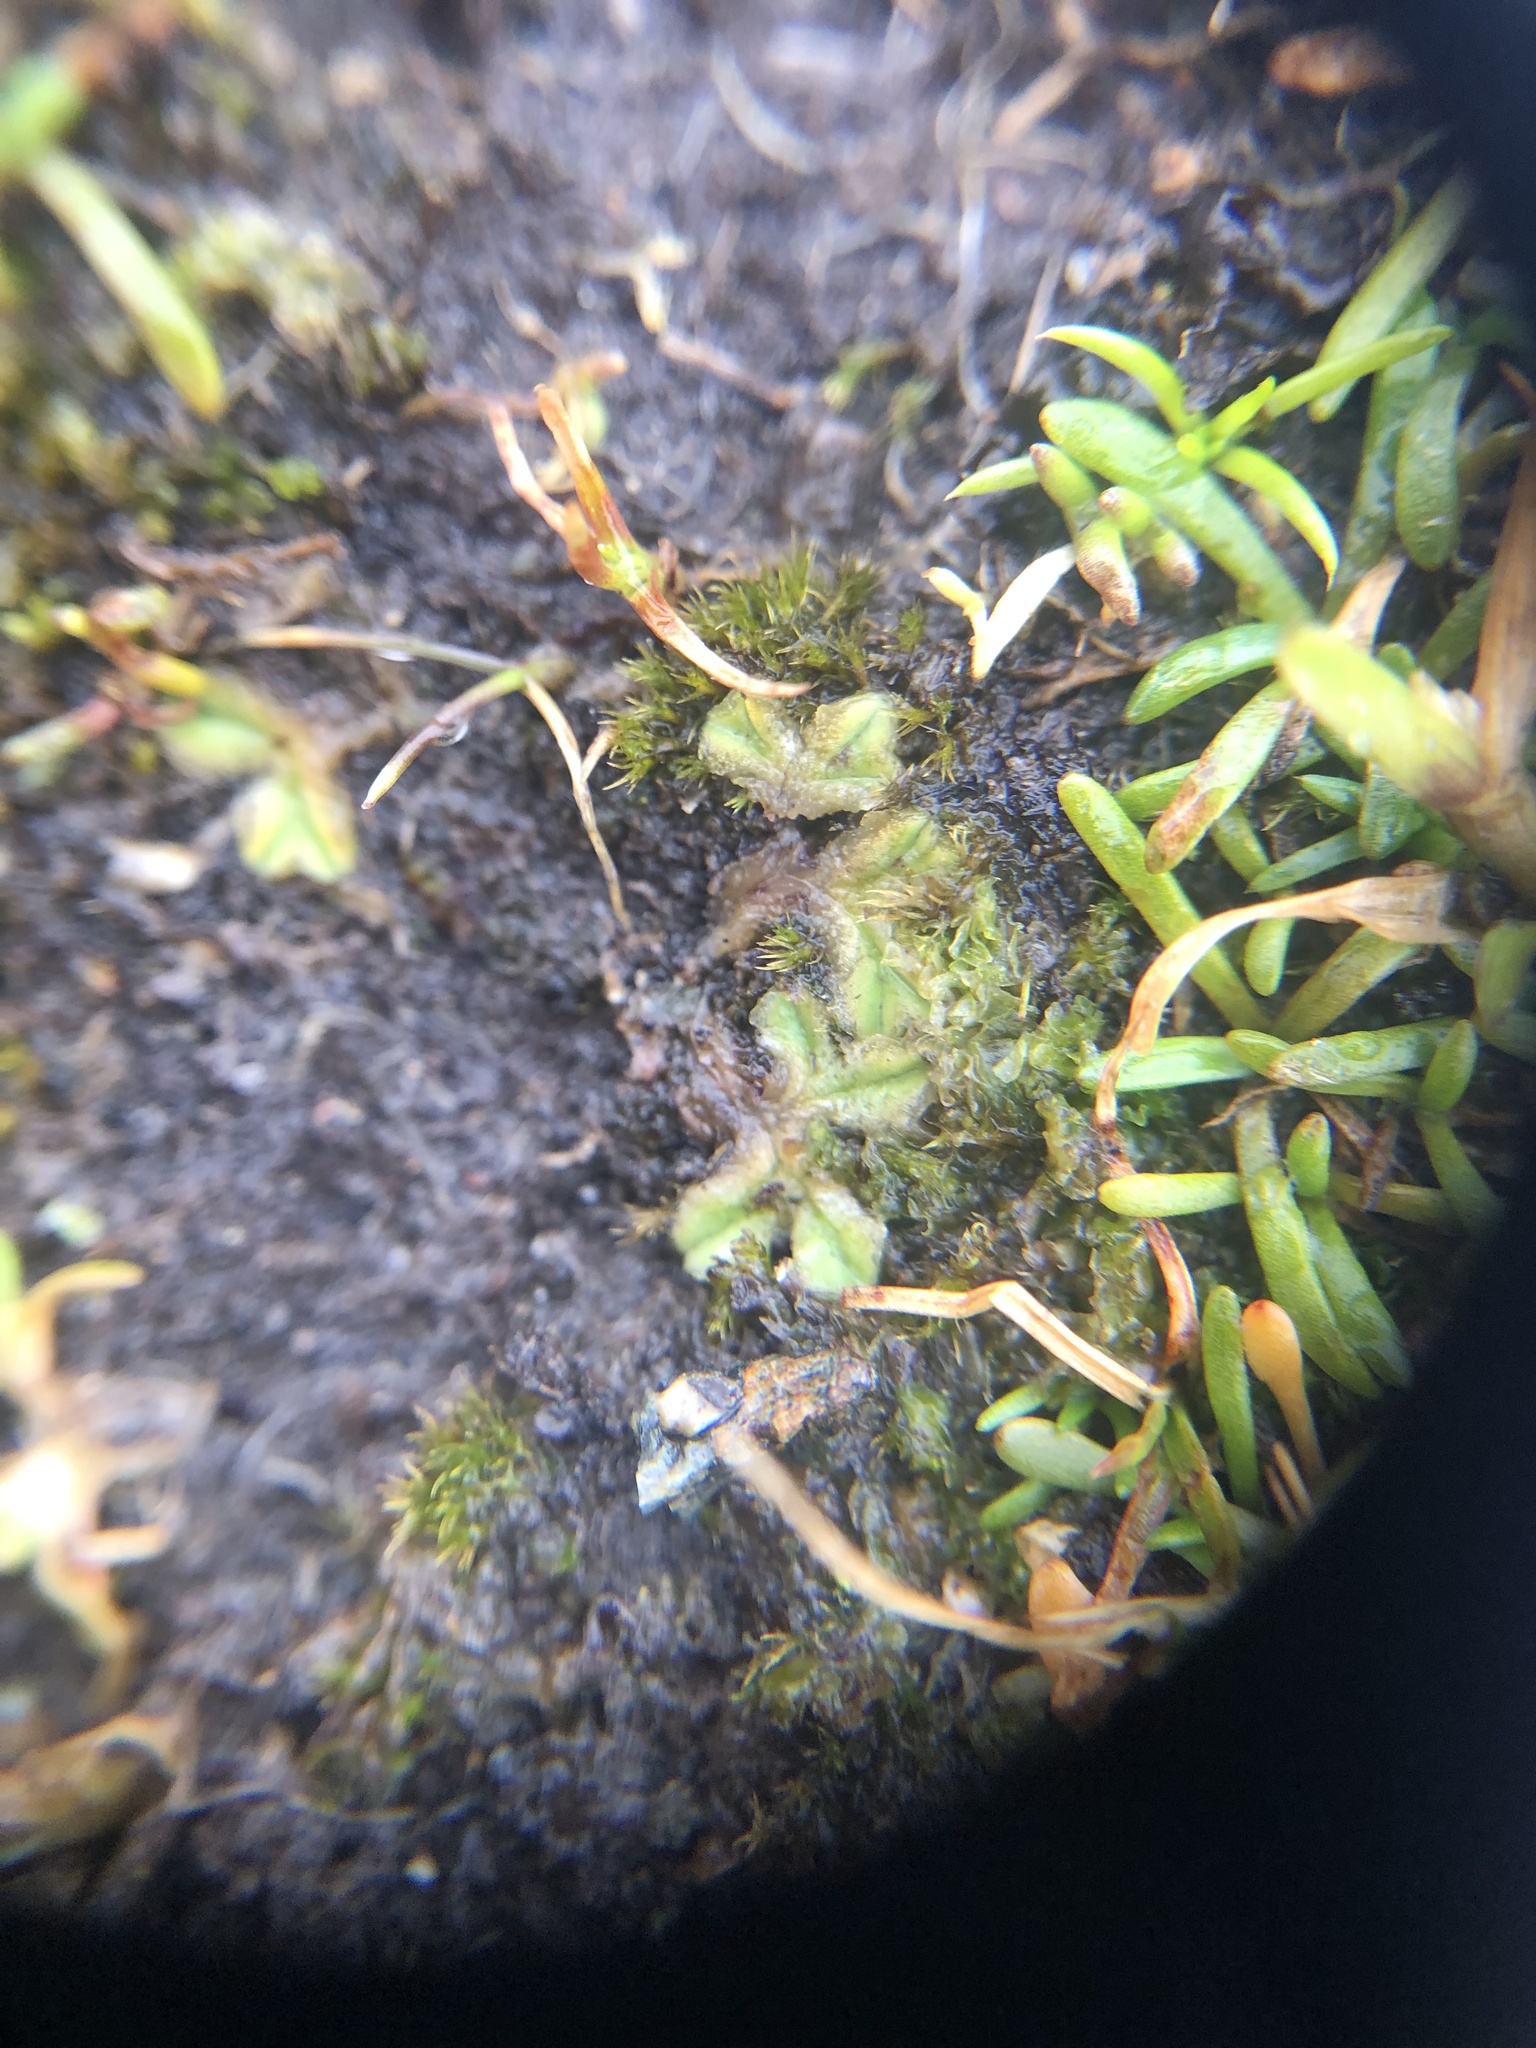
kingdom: Plantae
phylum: Marchantiophyta
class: Marchantiopsida
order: Marchantiales
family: Ricciaceae
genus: Riccia
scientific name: Riccia sorocarpa
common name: Common crystalwort
